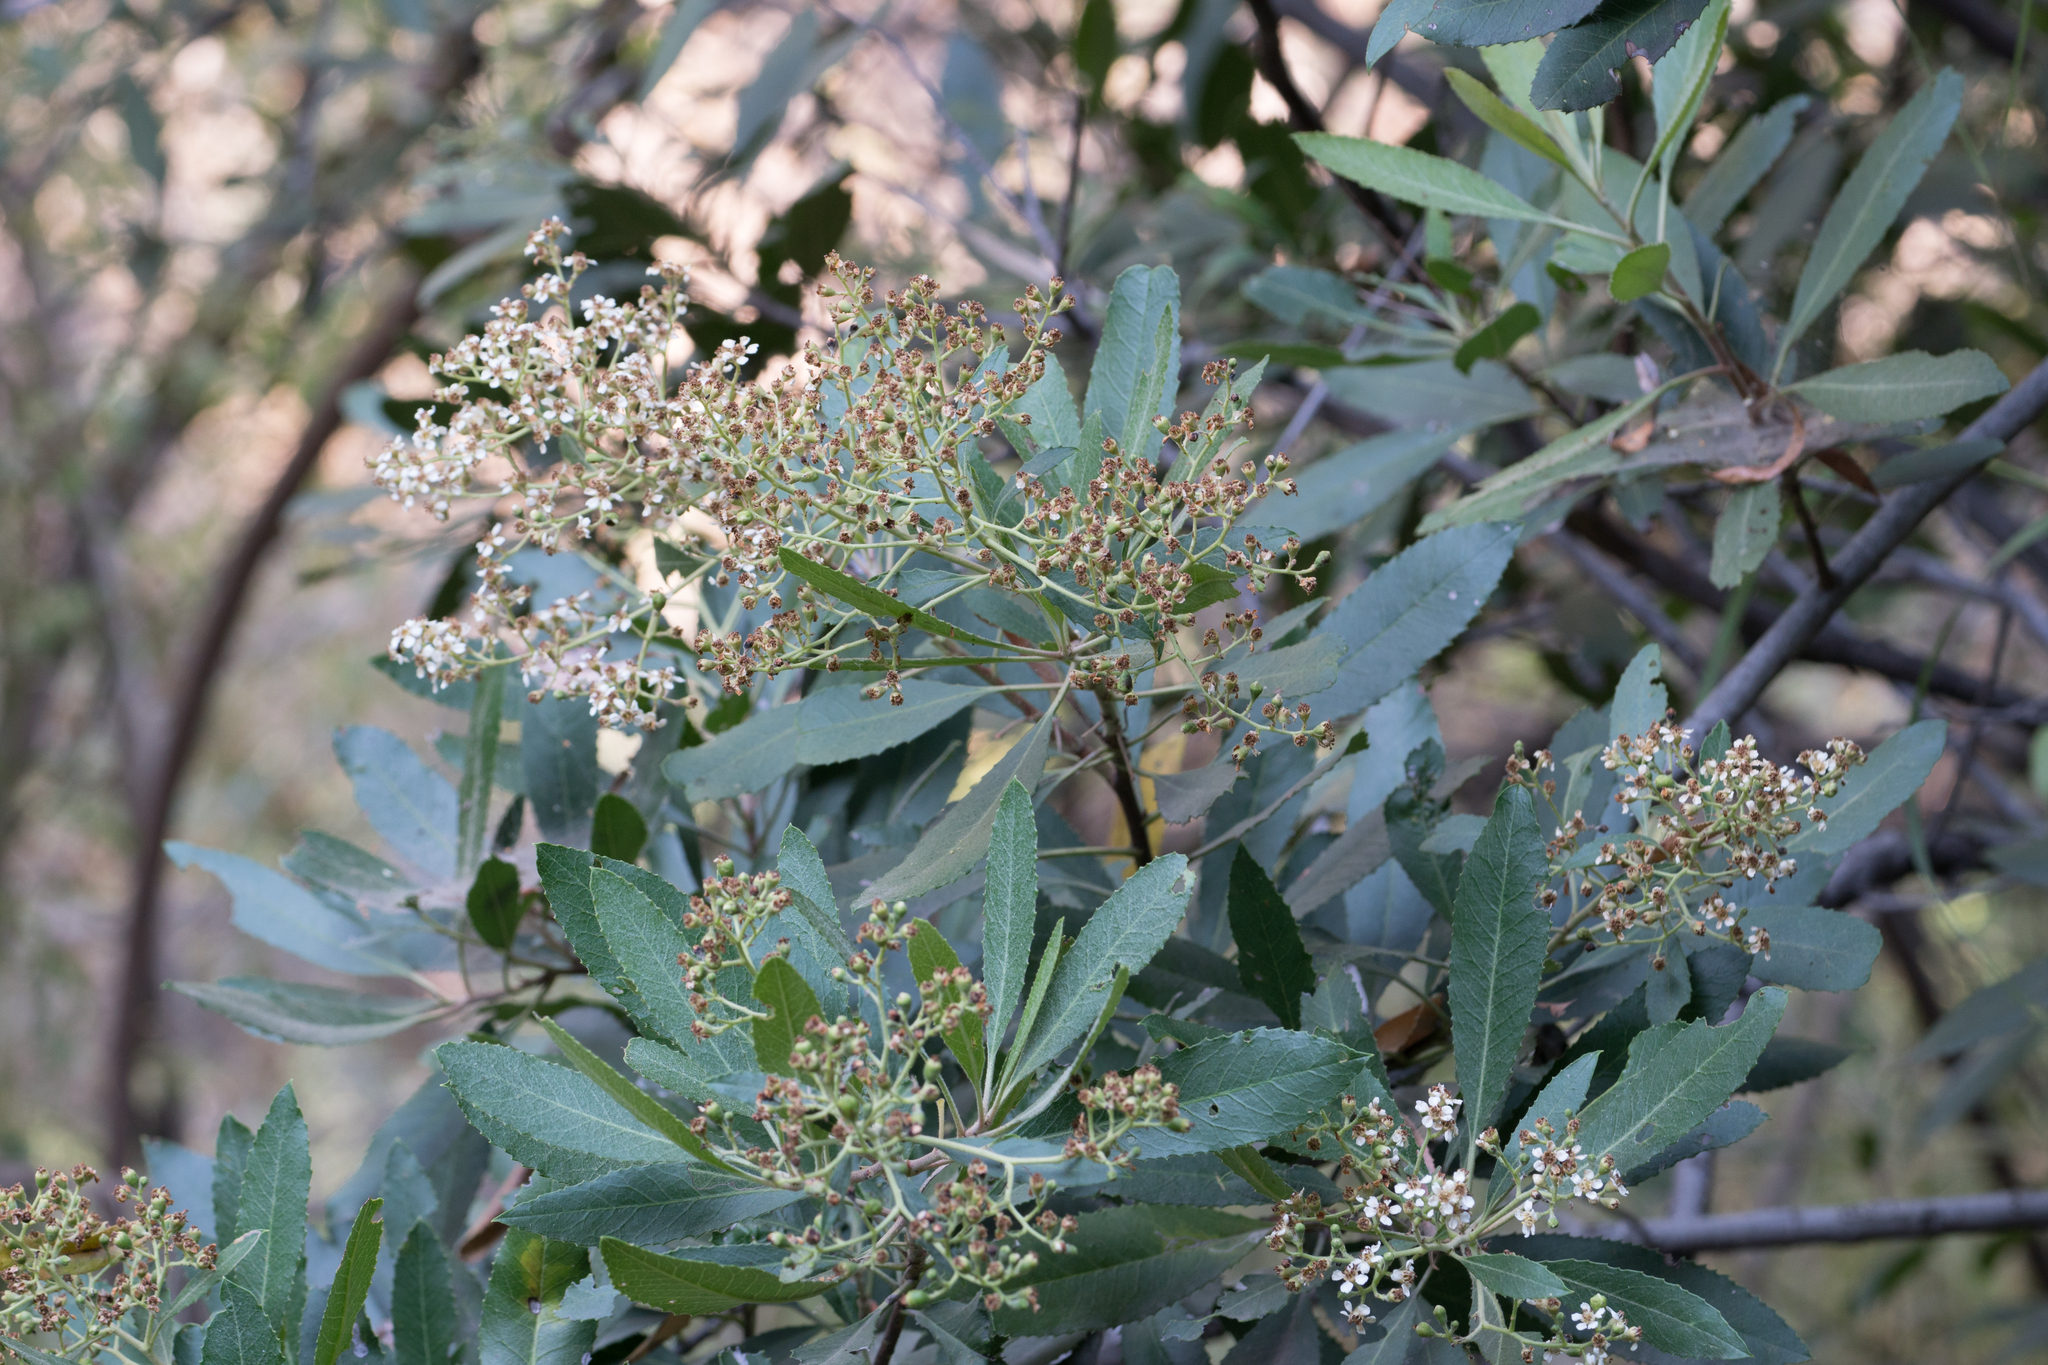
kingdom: Plantae
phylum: Tracheophyta
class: Magnoliopsida
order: Rosales
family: Rosaceae
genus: Heteromeles
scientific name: Heteromeles arbutifolia
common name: California-holly
